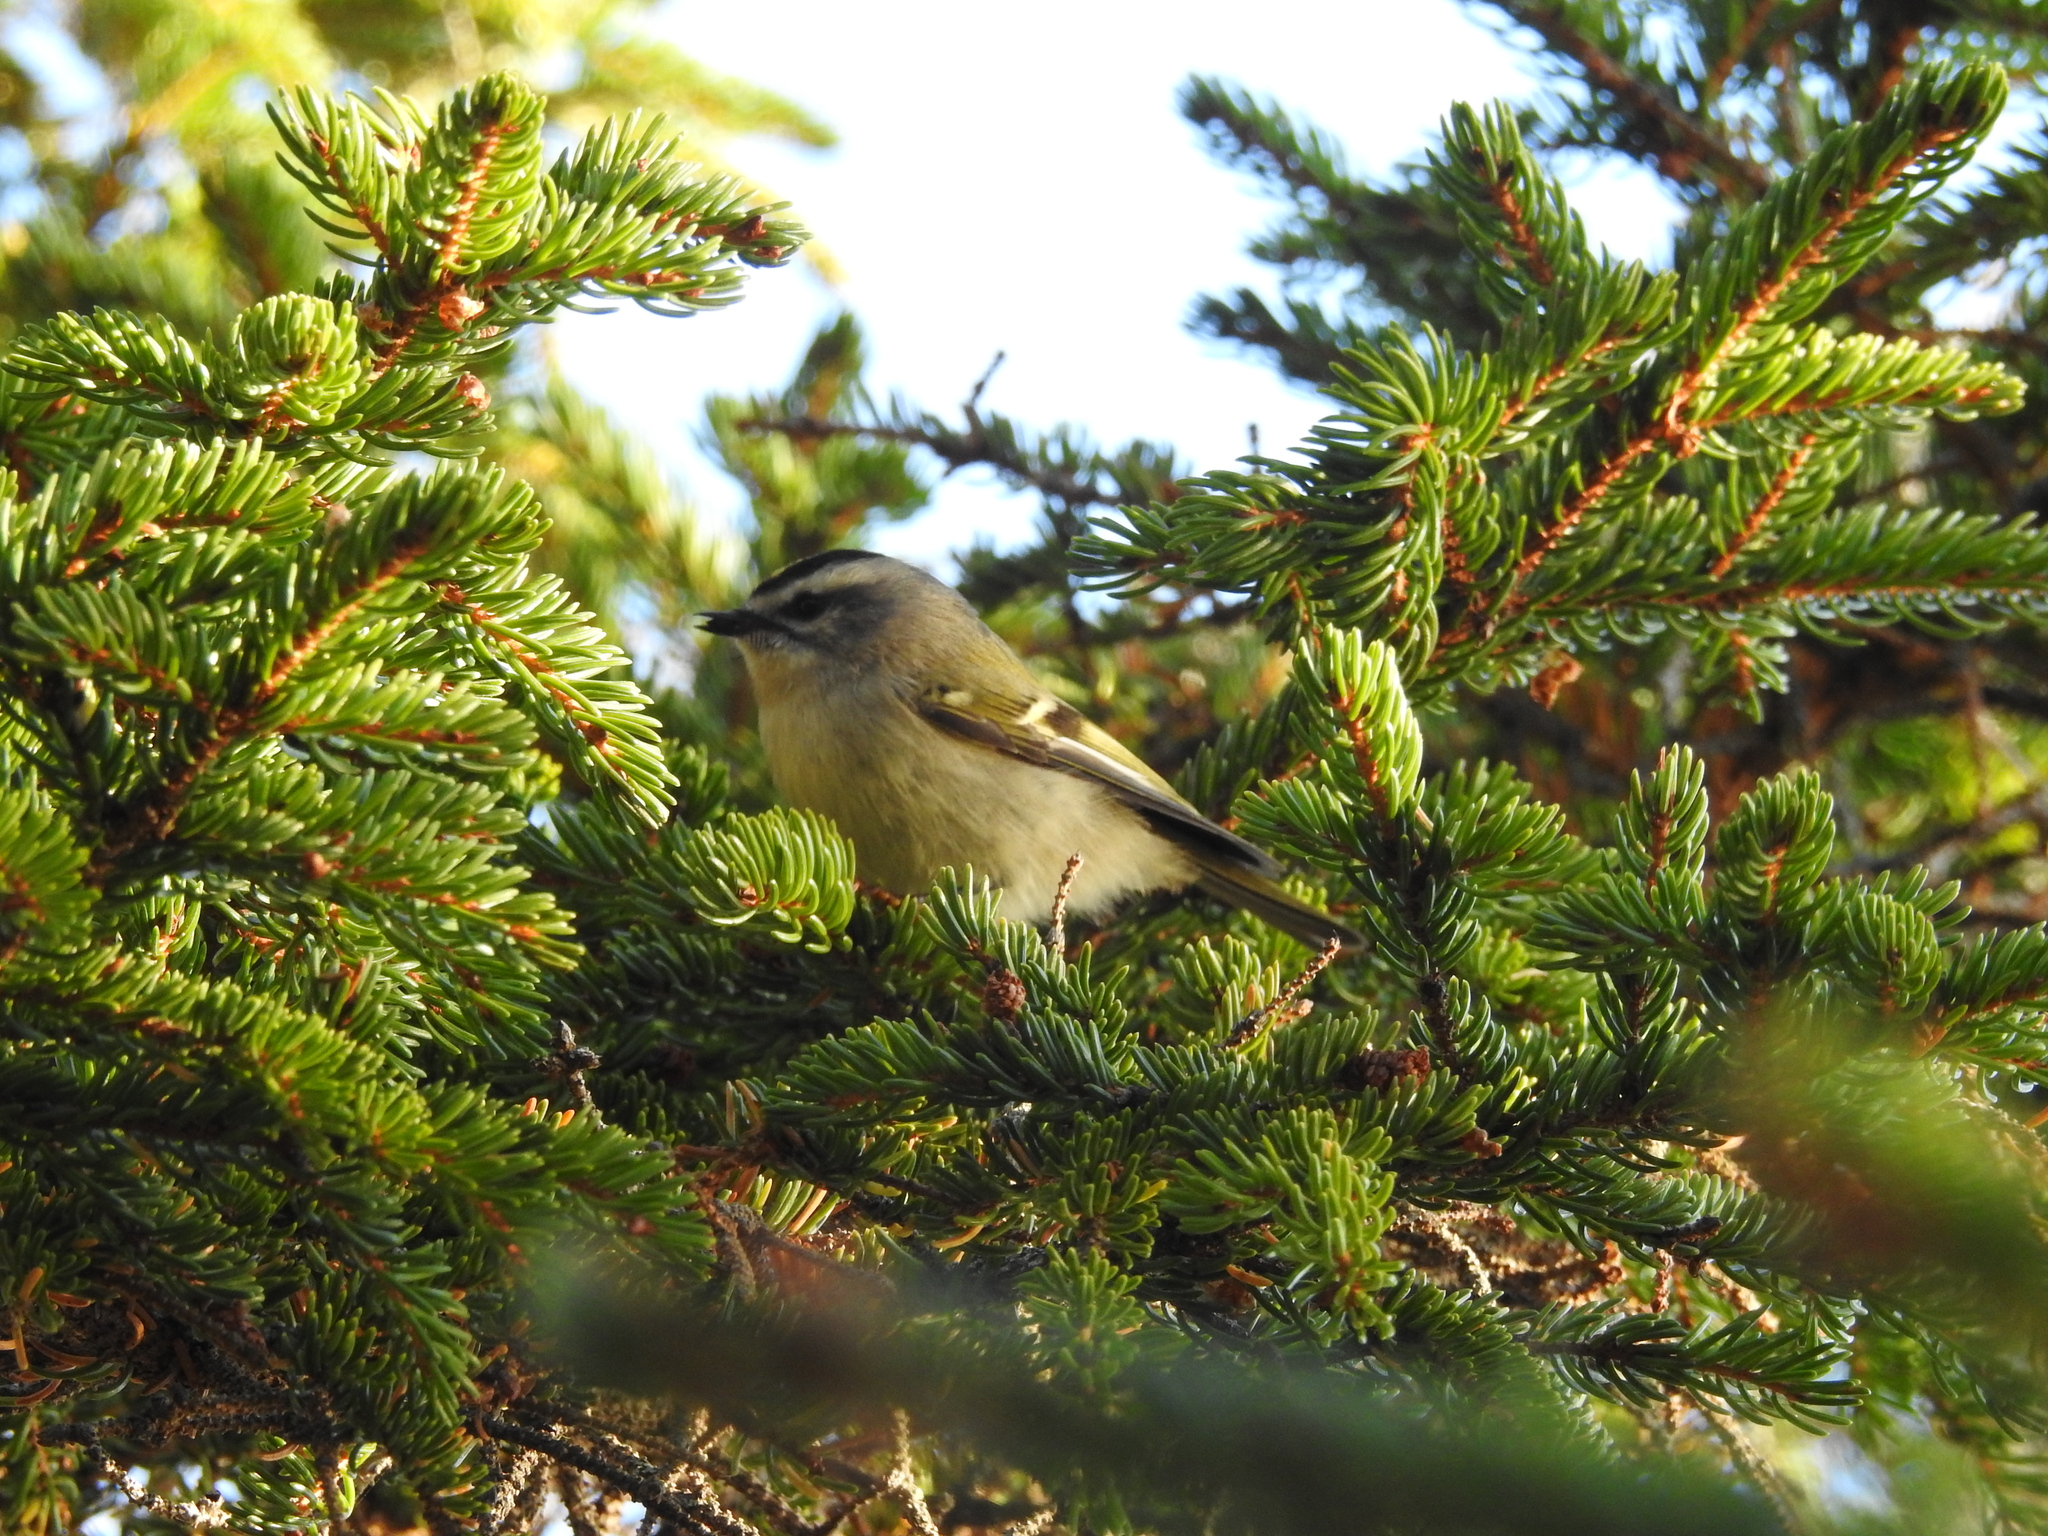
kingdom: Animalia
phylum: Chordata
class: Aves
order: Passeriformes
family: Regulidae
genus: Regulus
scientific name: Regulus satrapa
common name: Golden-crowned kinglet
